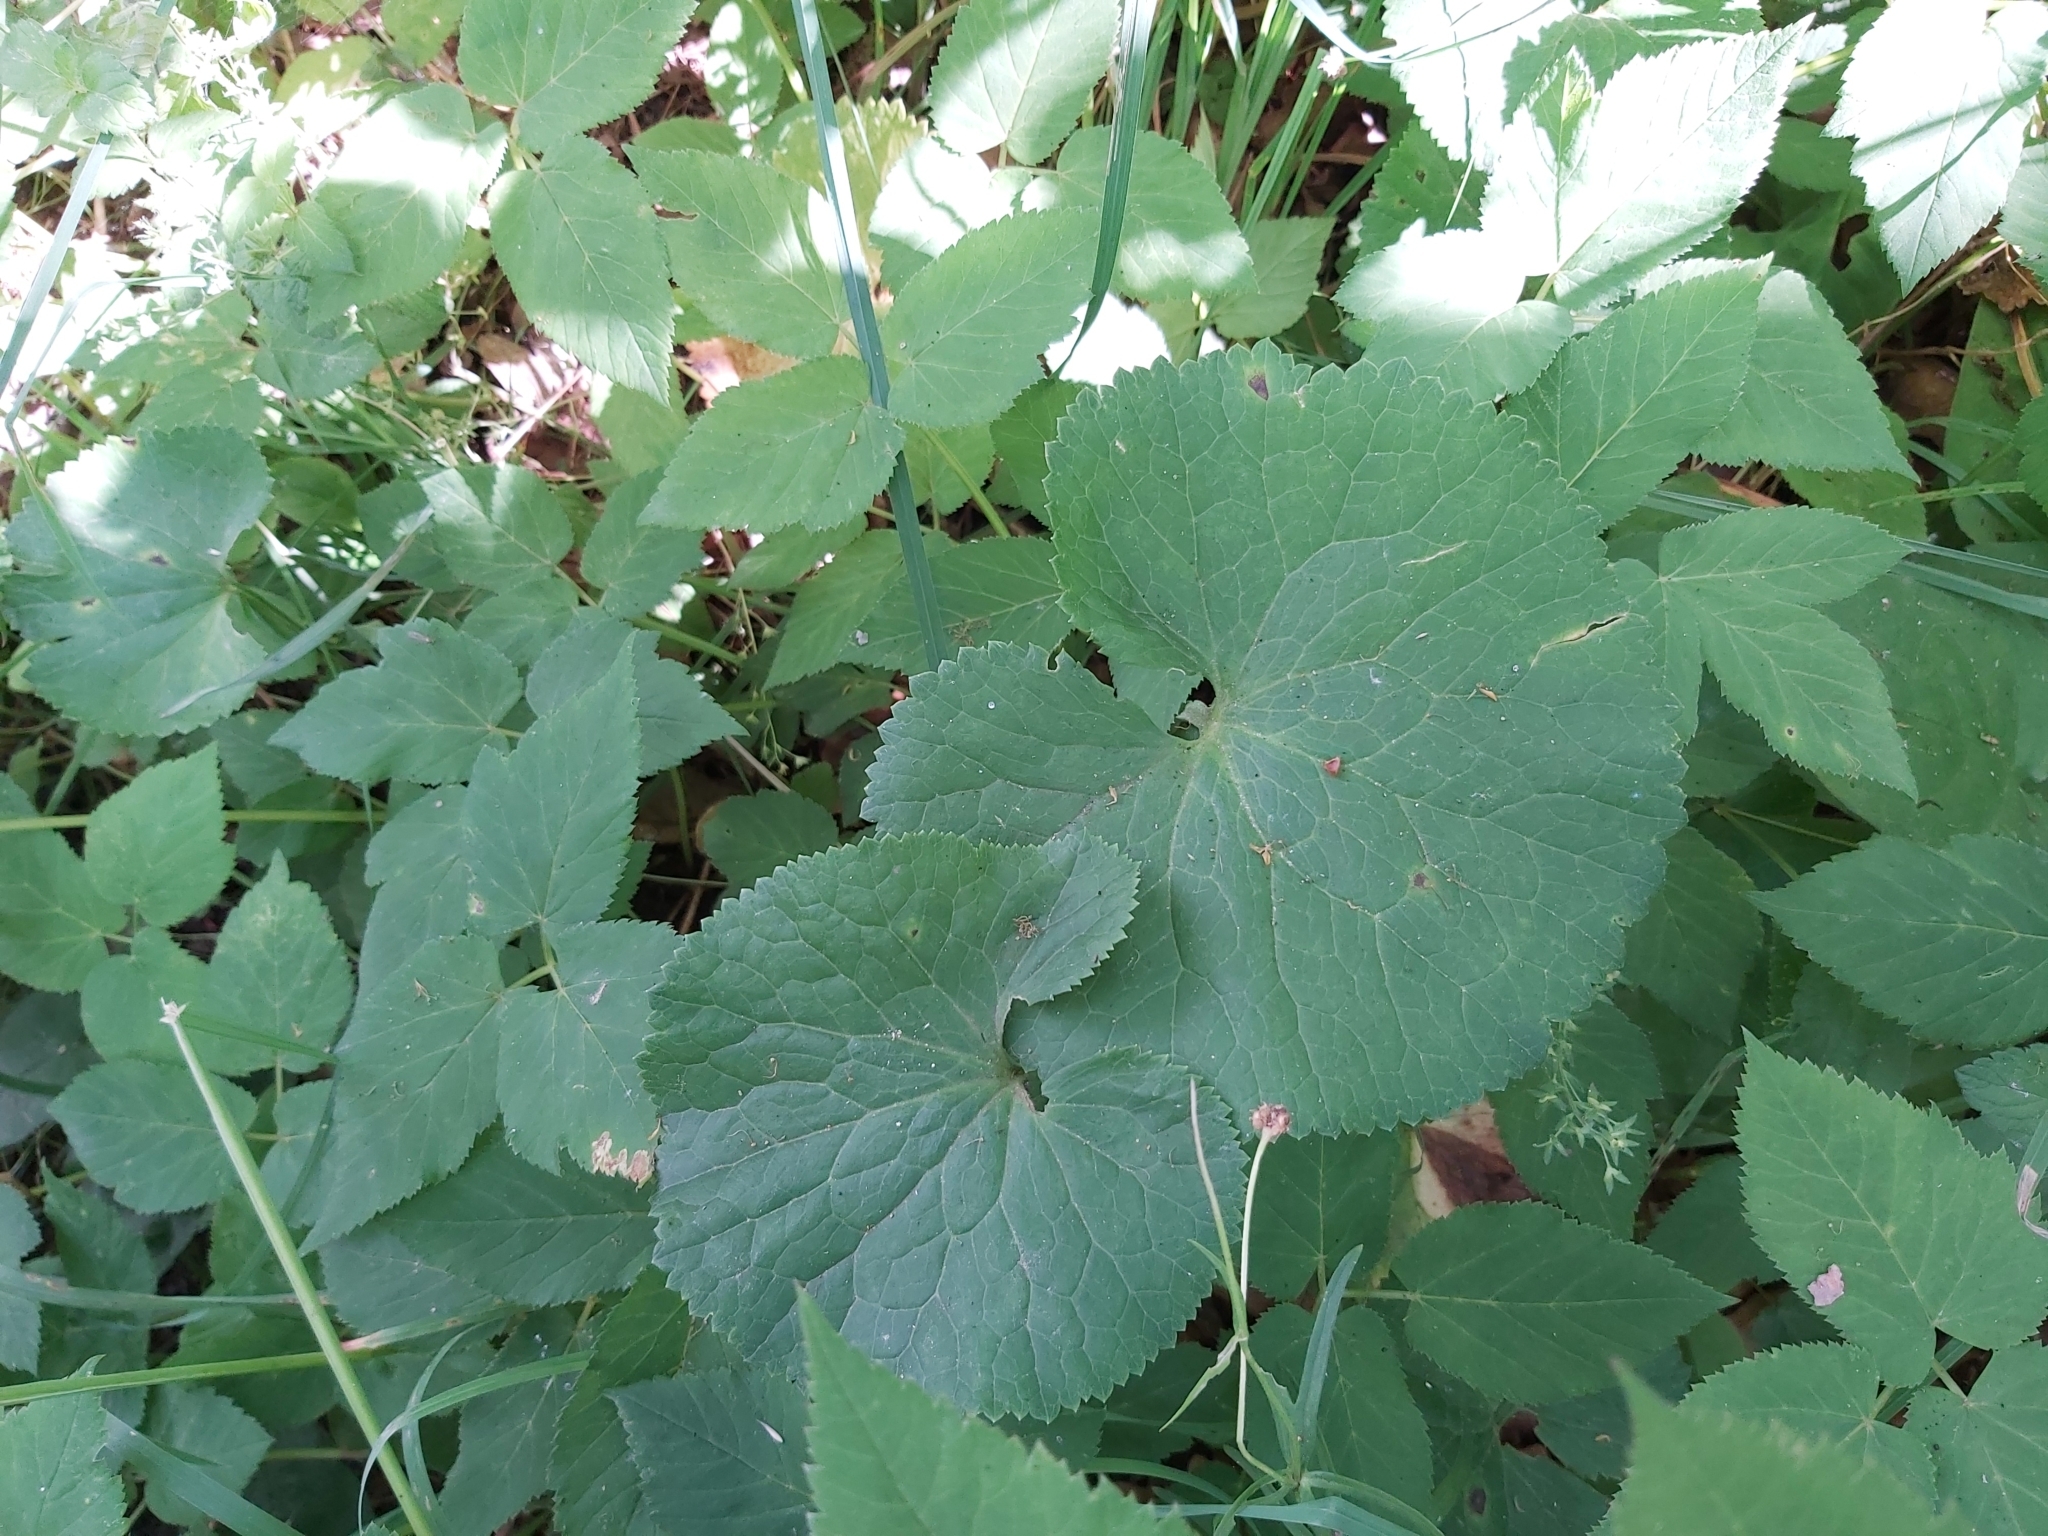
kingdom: Plantae
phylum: Tracheophyta
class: Magnoliopsida
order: Ranunculales
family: Ranunculaceae
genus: Ranunculus
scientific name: Ranunculus cassubicus
